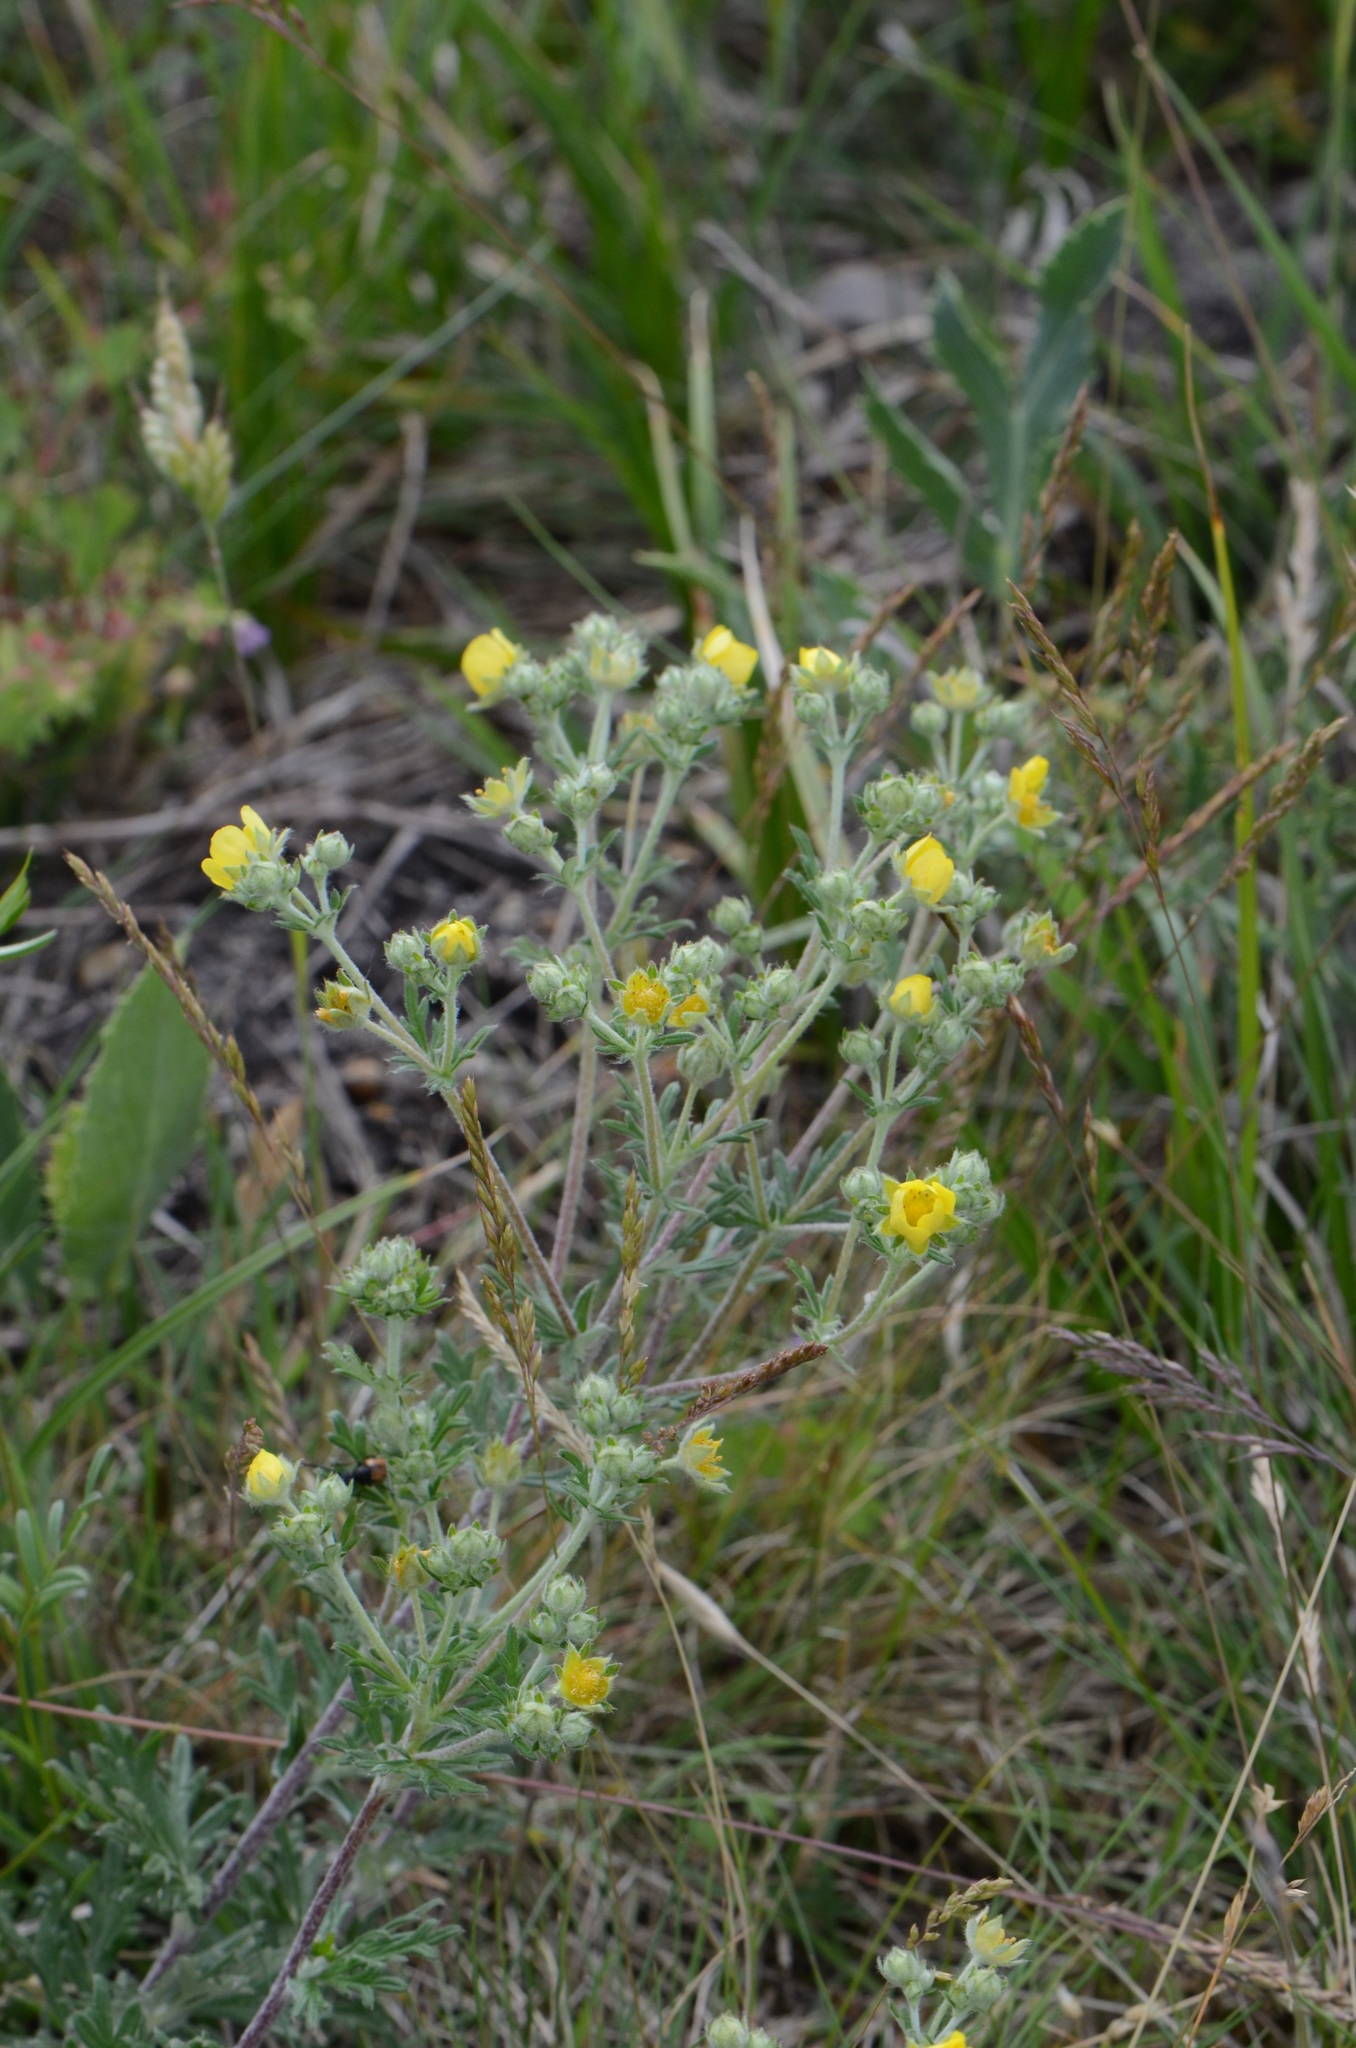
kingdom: Plantae
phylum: Tracheophyta
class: Magnoliopsida
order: Rosales
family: Rosaceae
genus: Potentilla
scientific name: Potentilla argentea
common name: Hoary cinquefoil
